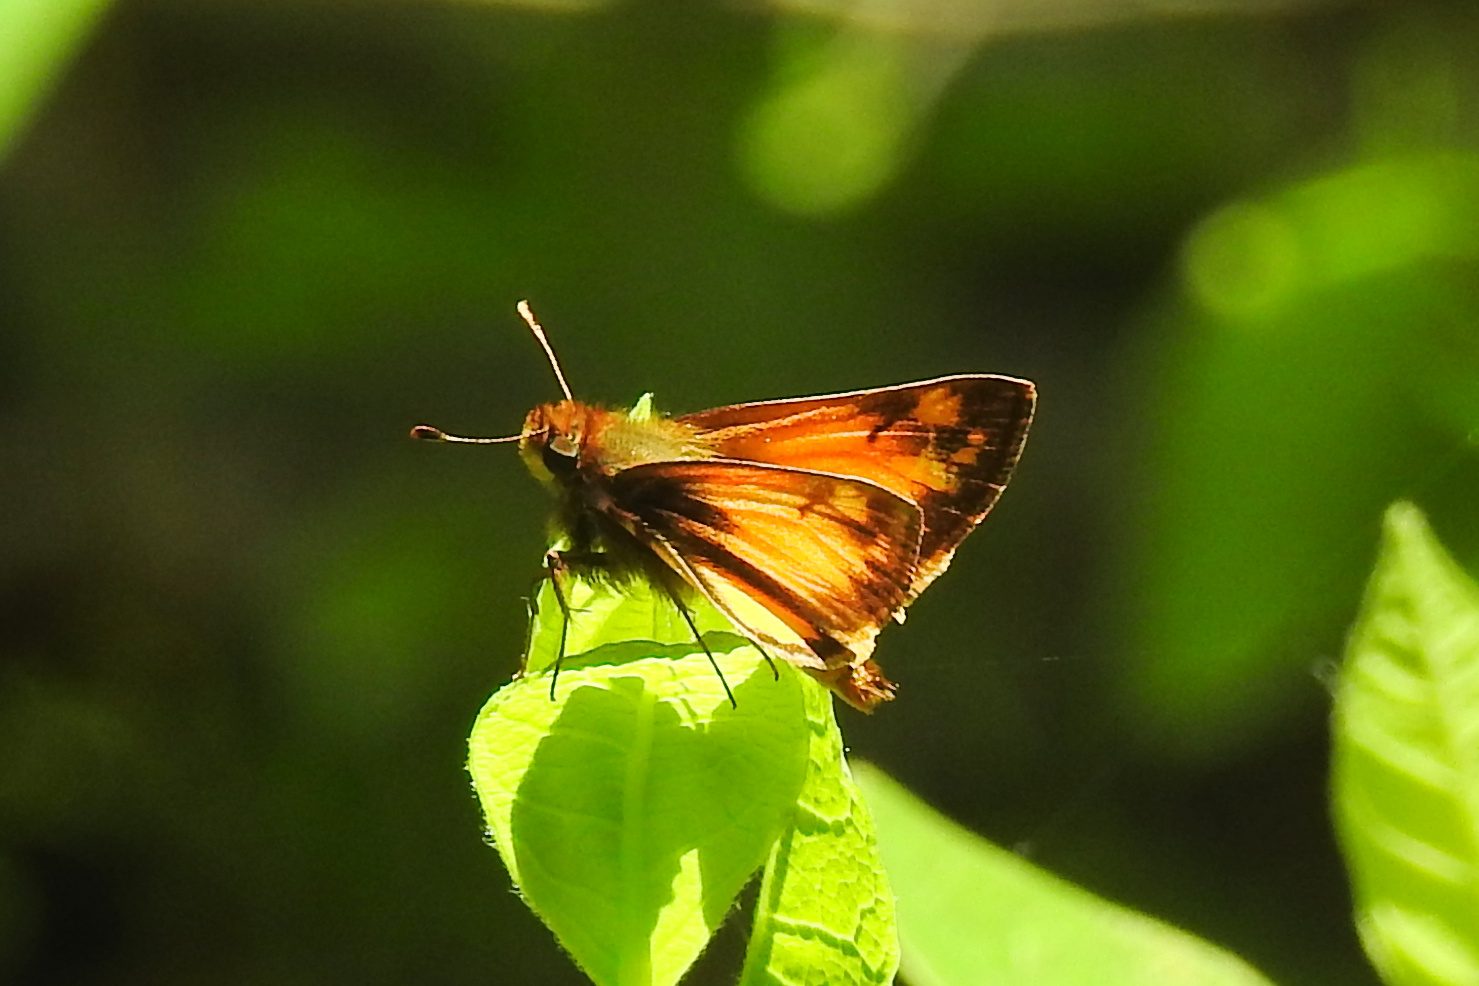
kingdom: Animalia
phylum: Arthropoda
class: Insecta
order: Lepidoptera
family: Hesperiidae
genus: Lon
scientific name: Lon zabulon
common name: Zabulon skipper
